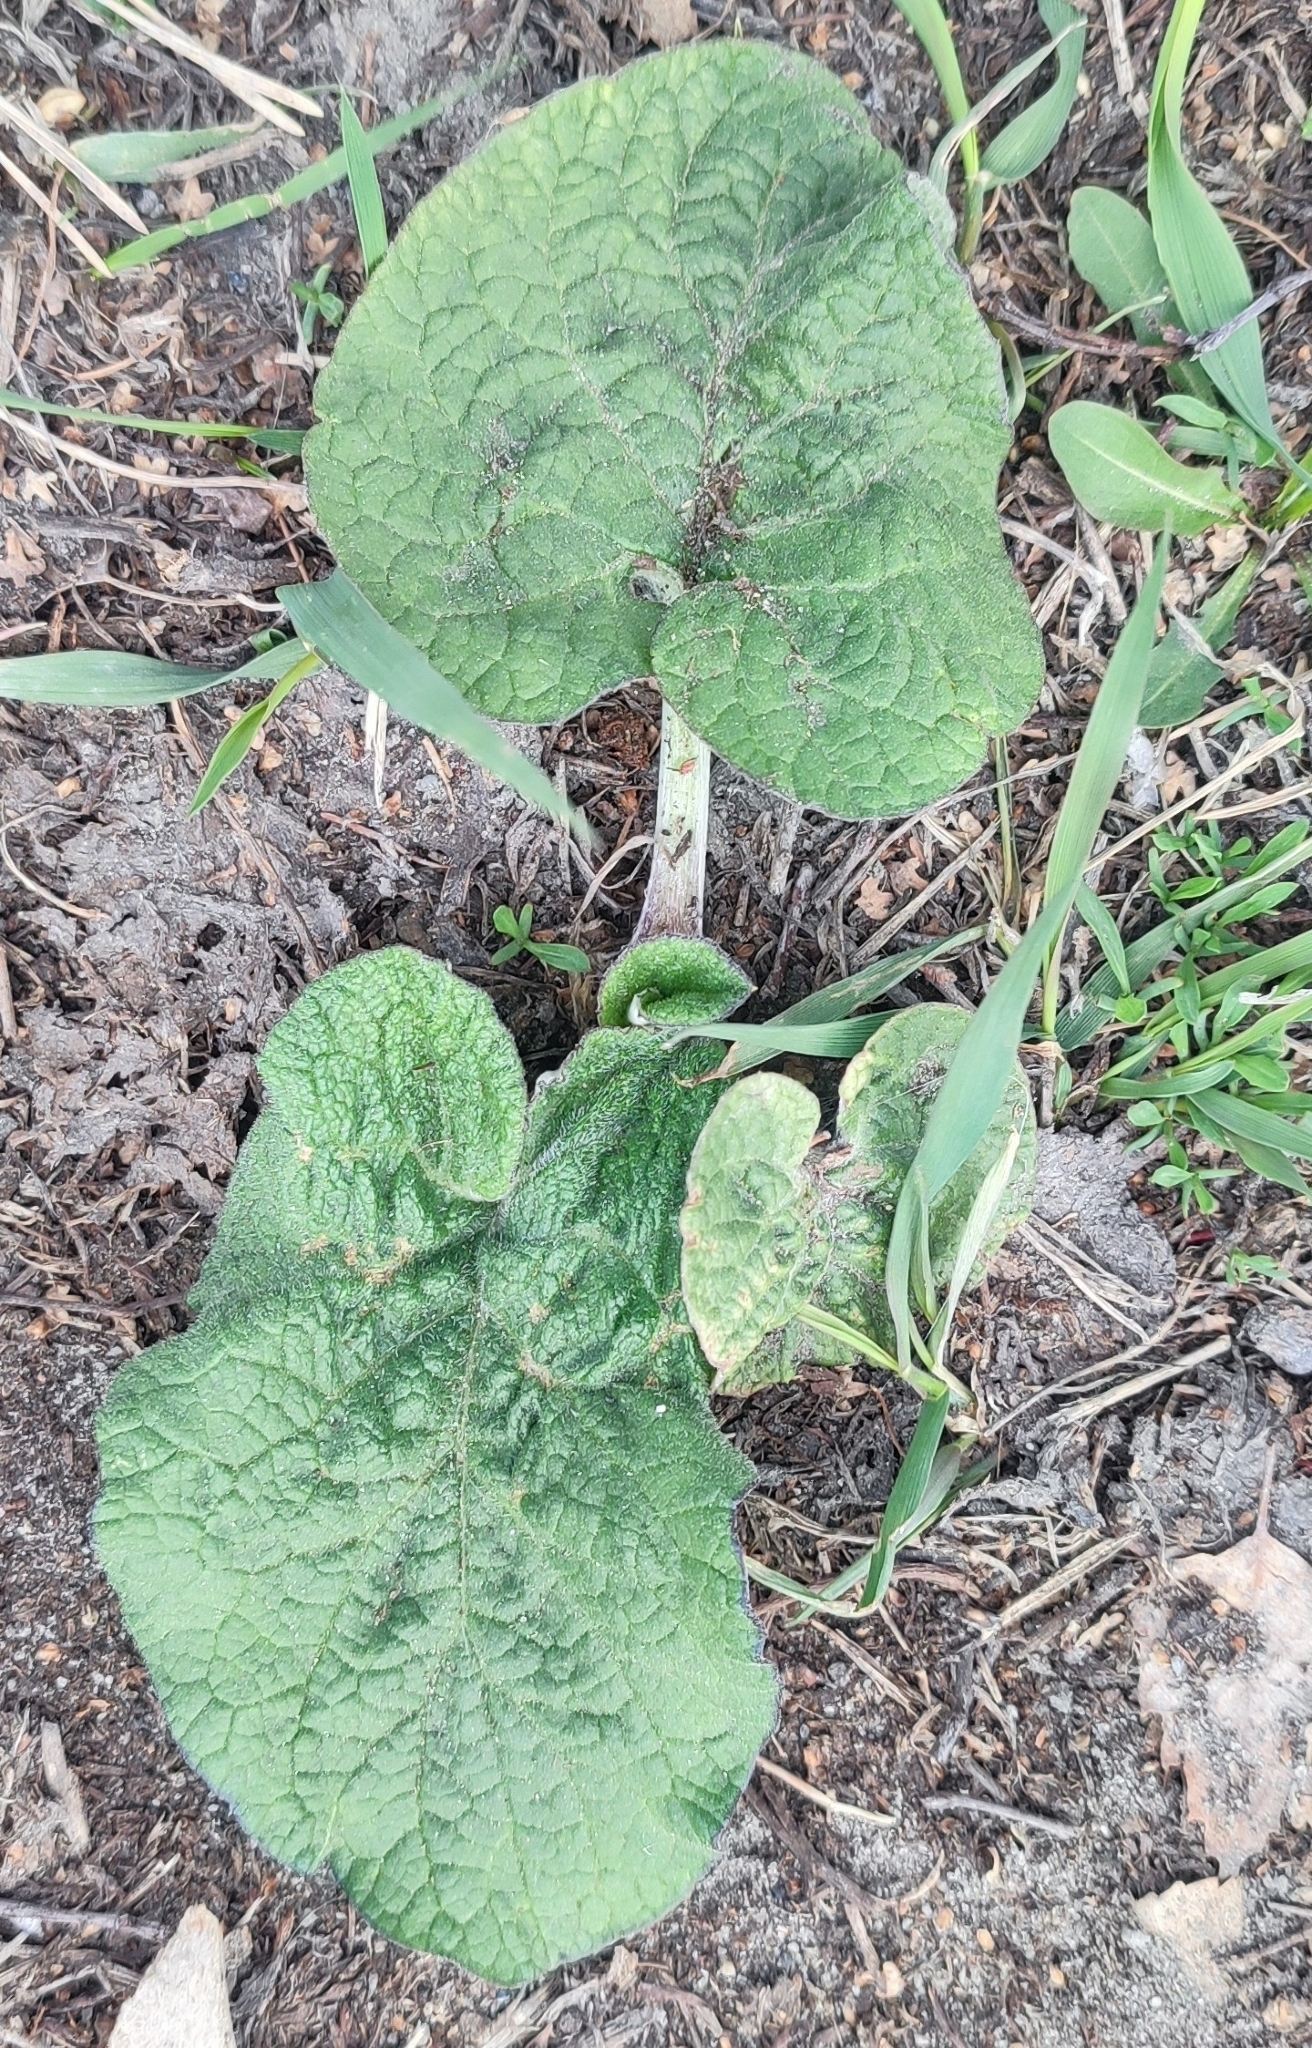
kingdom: Plantae
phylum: Tracheophyta
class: Magnoliopsida
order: Asterales
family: Asteraceae
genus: Arctium
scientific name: Arctium tomentosum
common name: Woolly burdock
